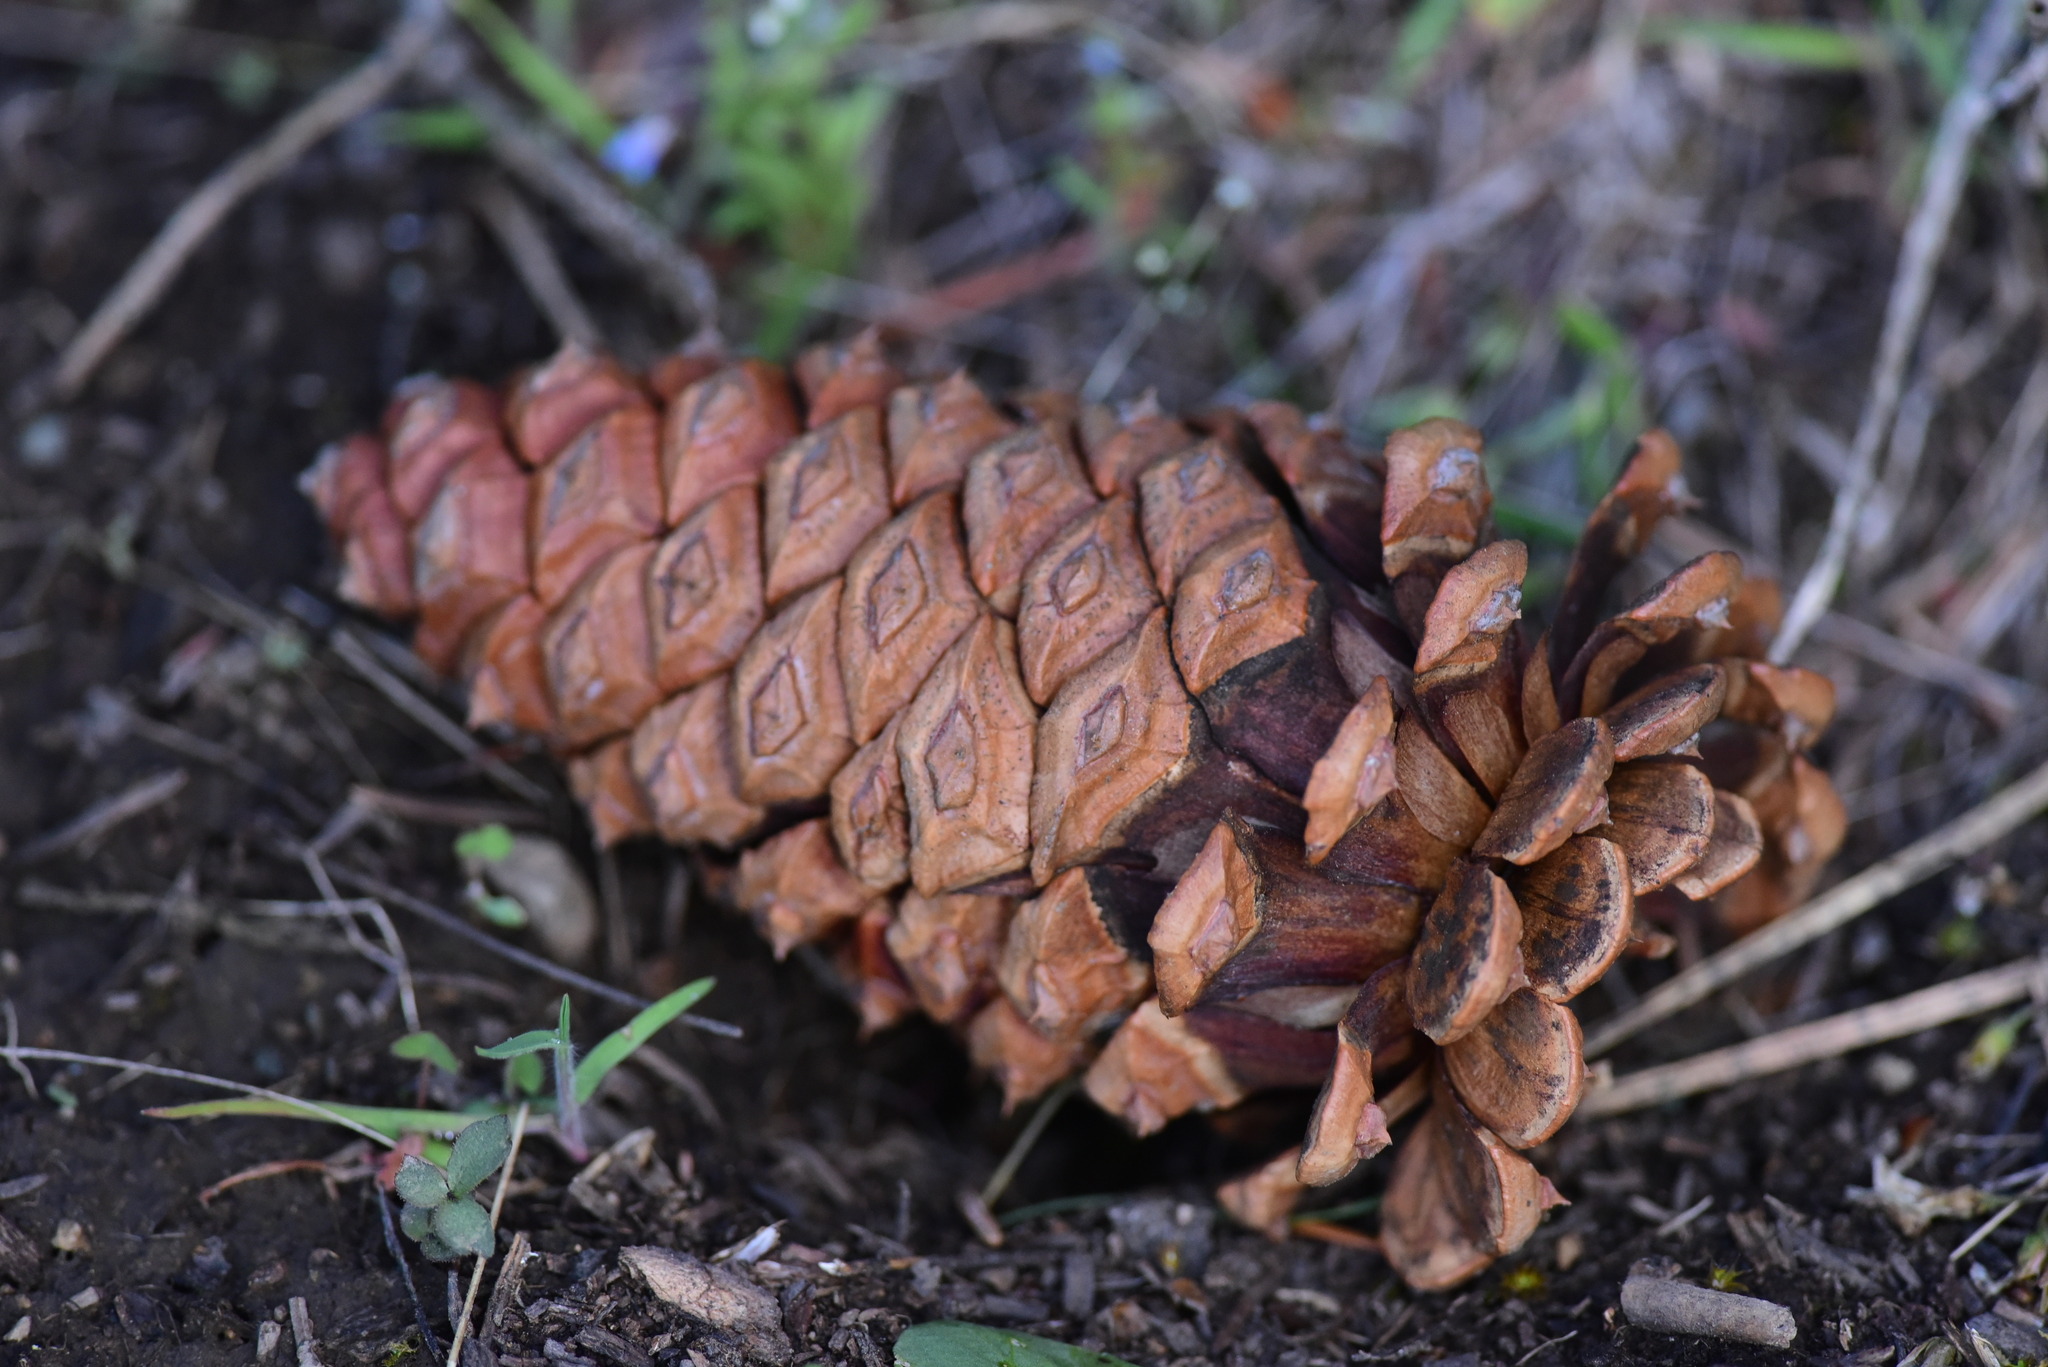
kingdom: Plantae
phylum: Tracheophyta
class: Pinopsida
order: Pinales
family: Pinaceae
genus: Pinus
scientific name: Pinus ponderosa
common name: Western yellow-pine
